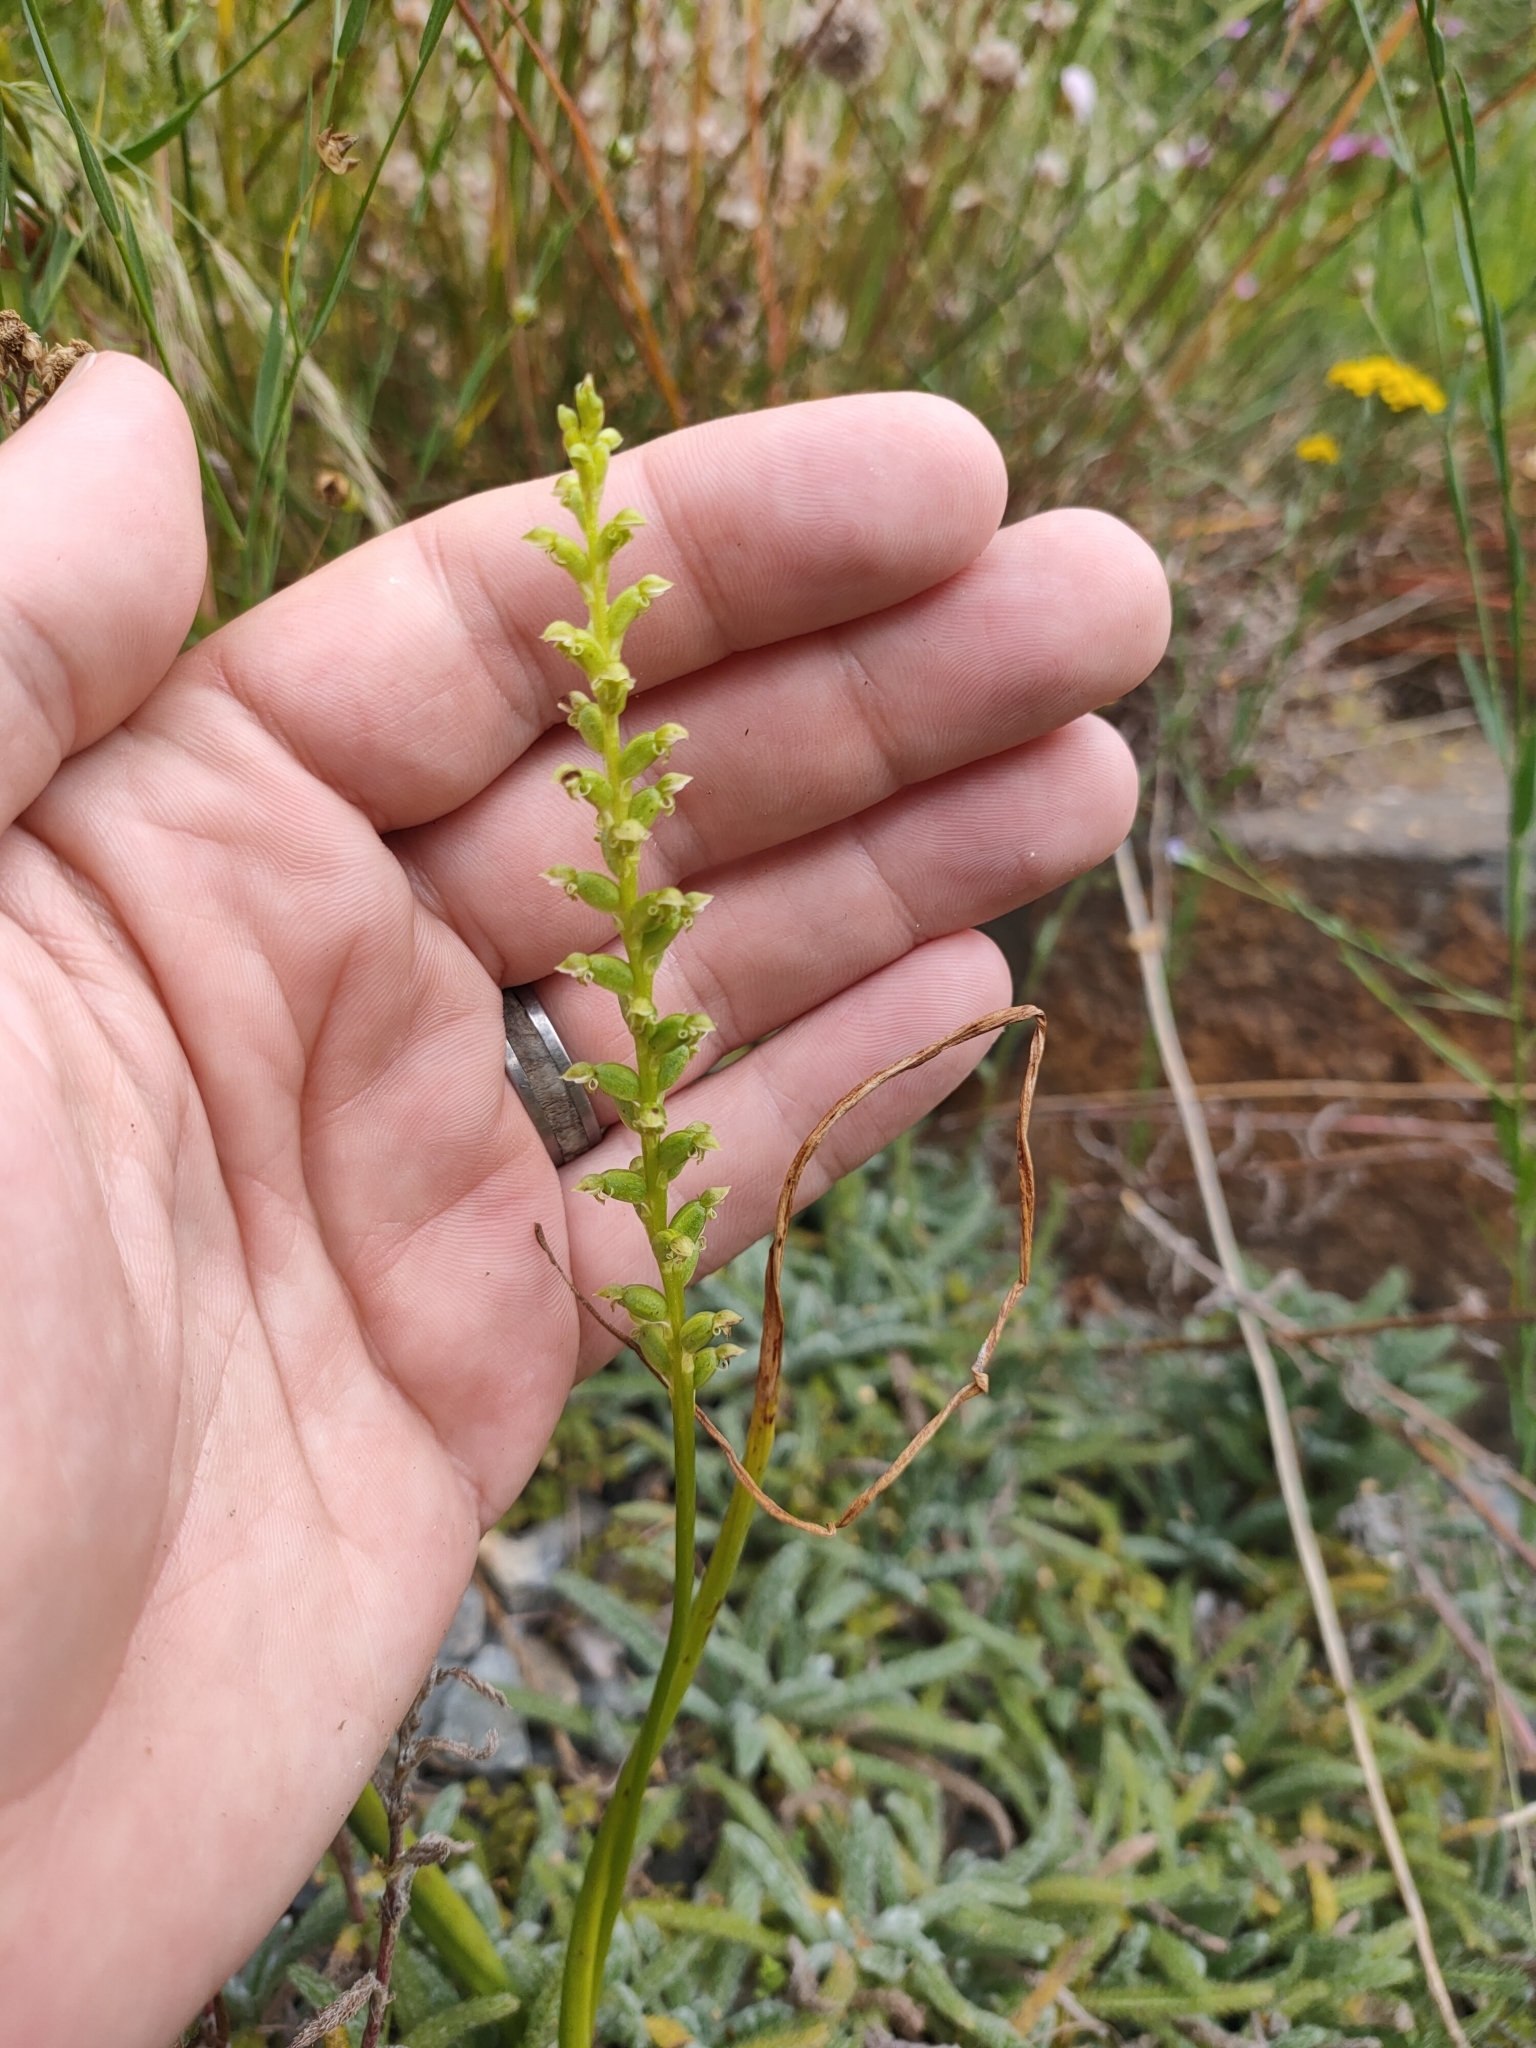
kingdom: Plantae
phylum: Tracheophyta
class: Liliopsida
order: Asparagales
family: Orchidaceae
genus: Microtis
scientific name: Microtis unifolia
